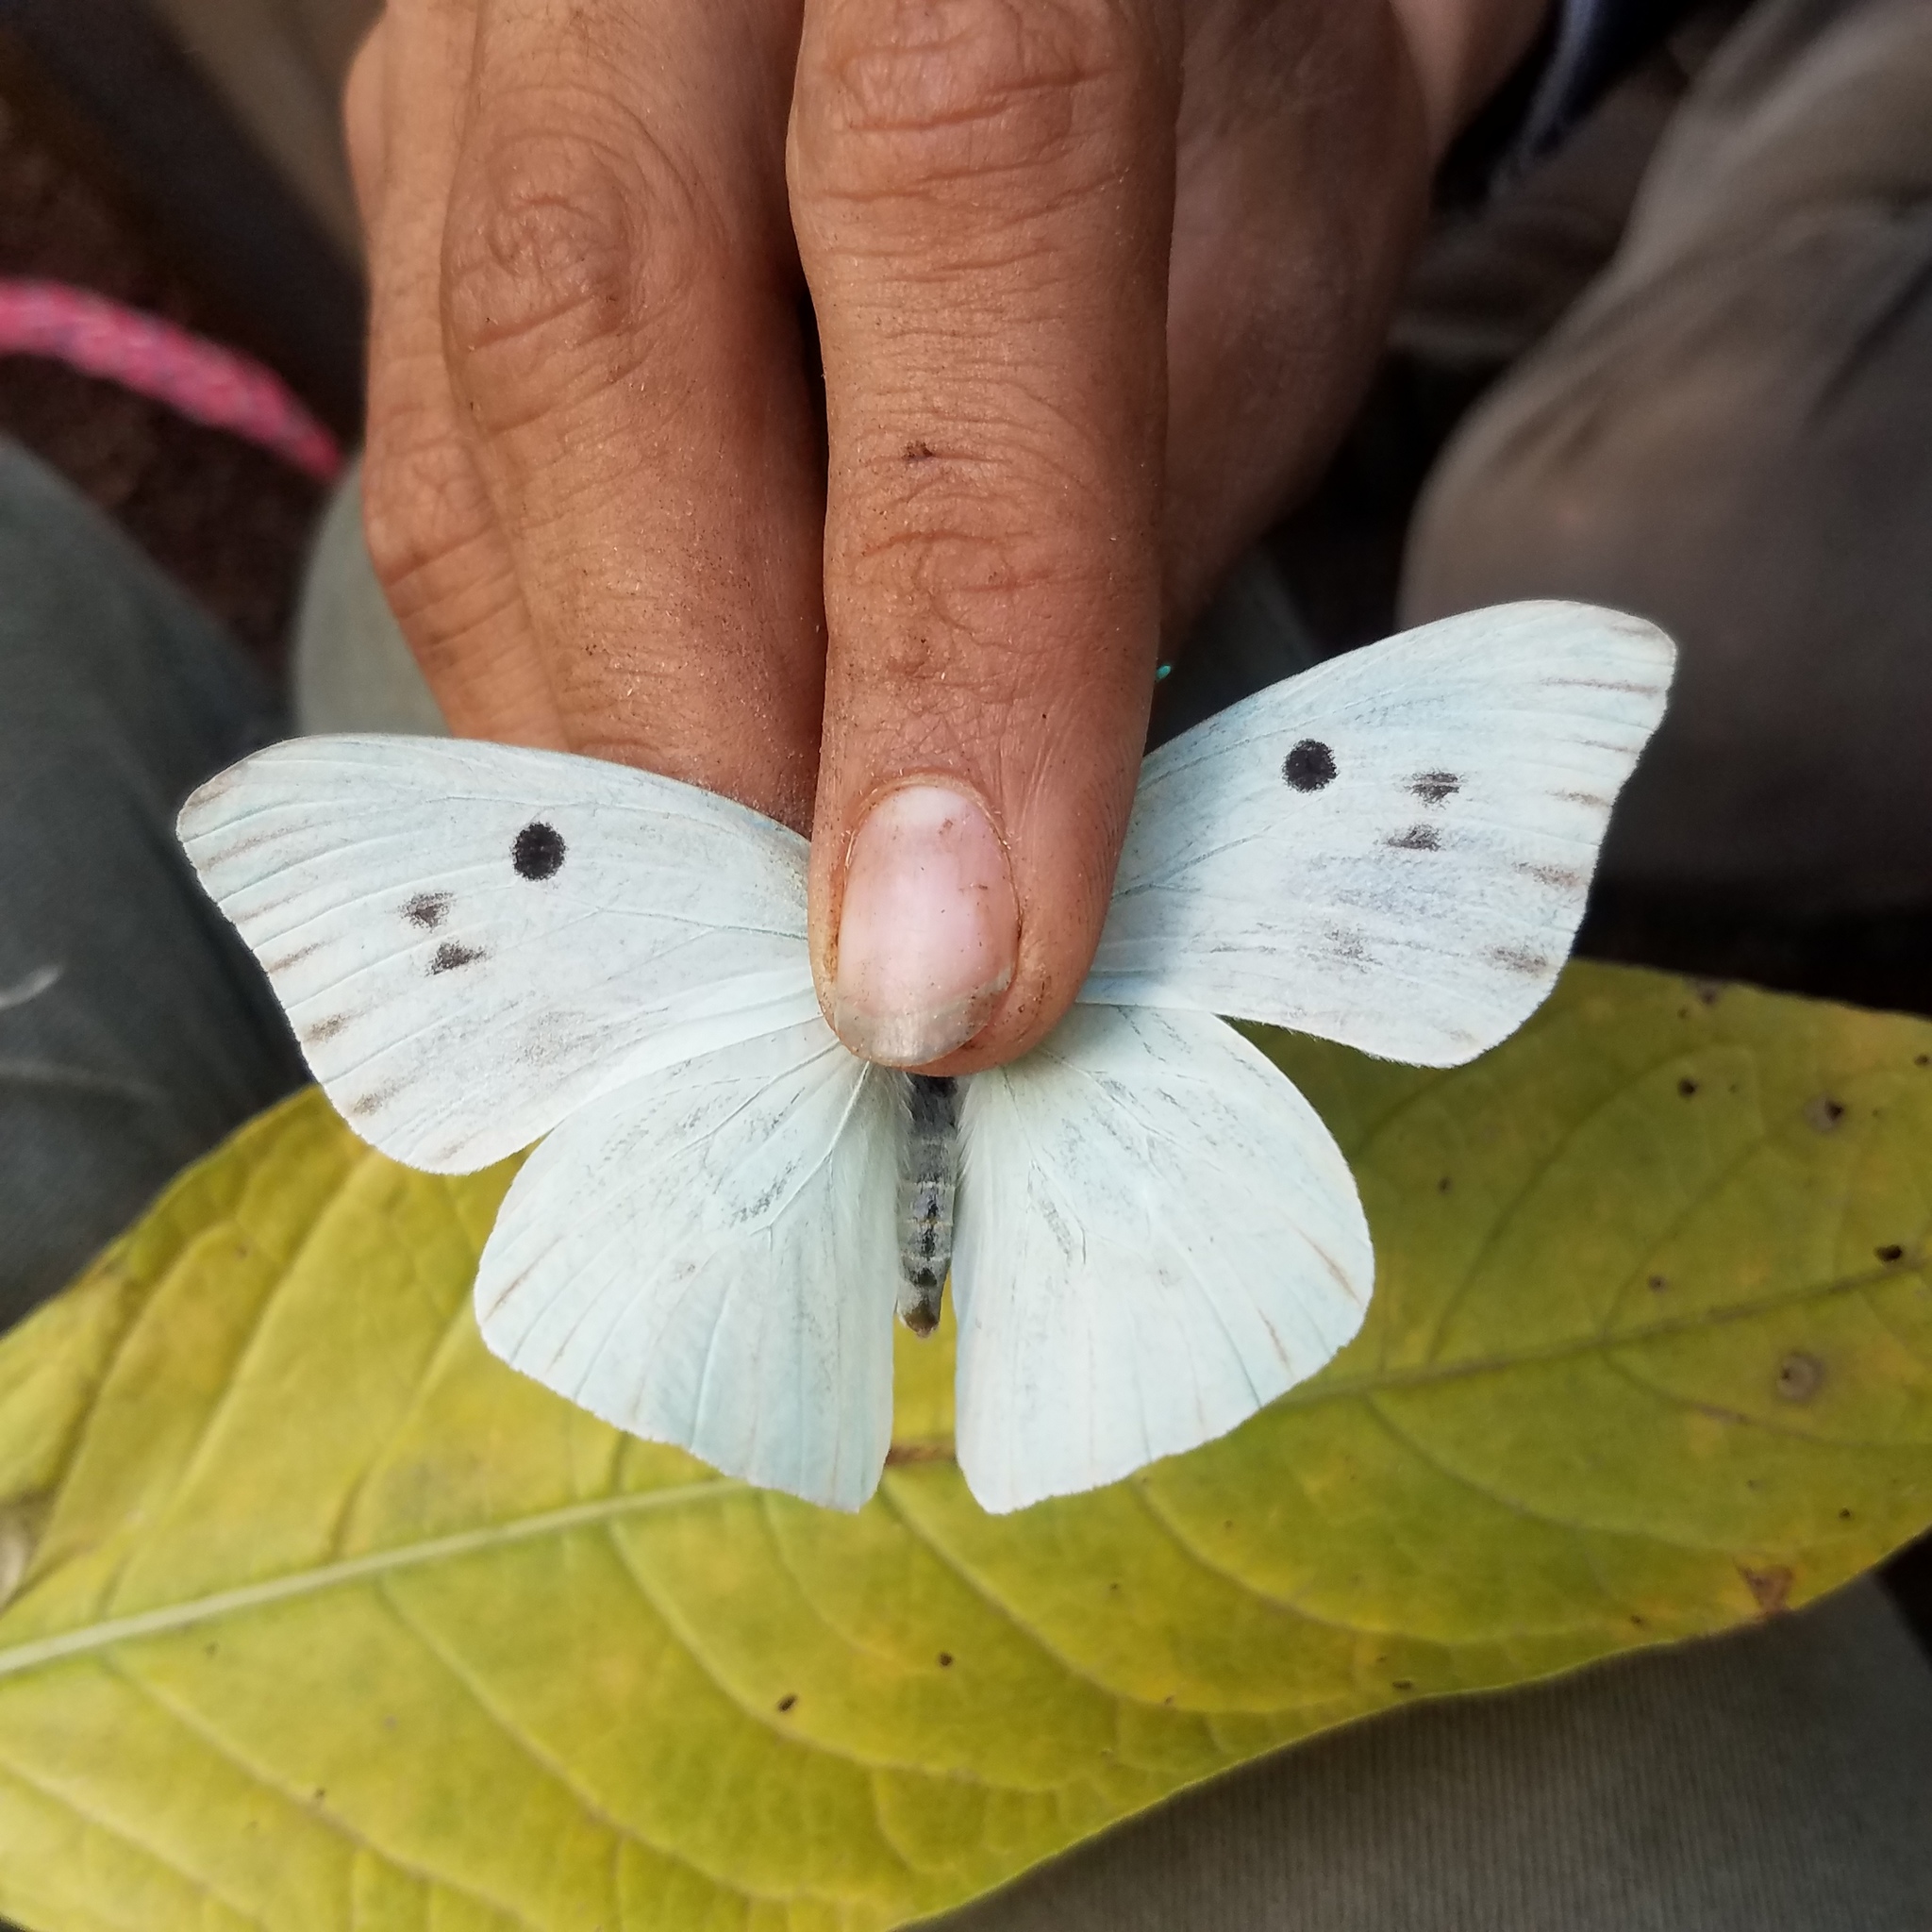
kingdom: Animalia
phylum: Arthropoda
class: Insecta
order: Lepidoptera
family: Pieridae
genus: Ganyra
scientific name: Ganyra josephina
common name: Giant white
